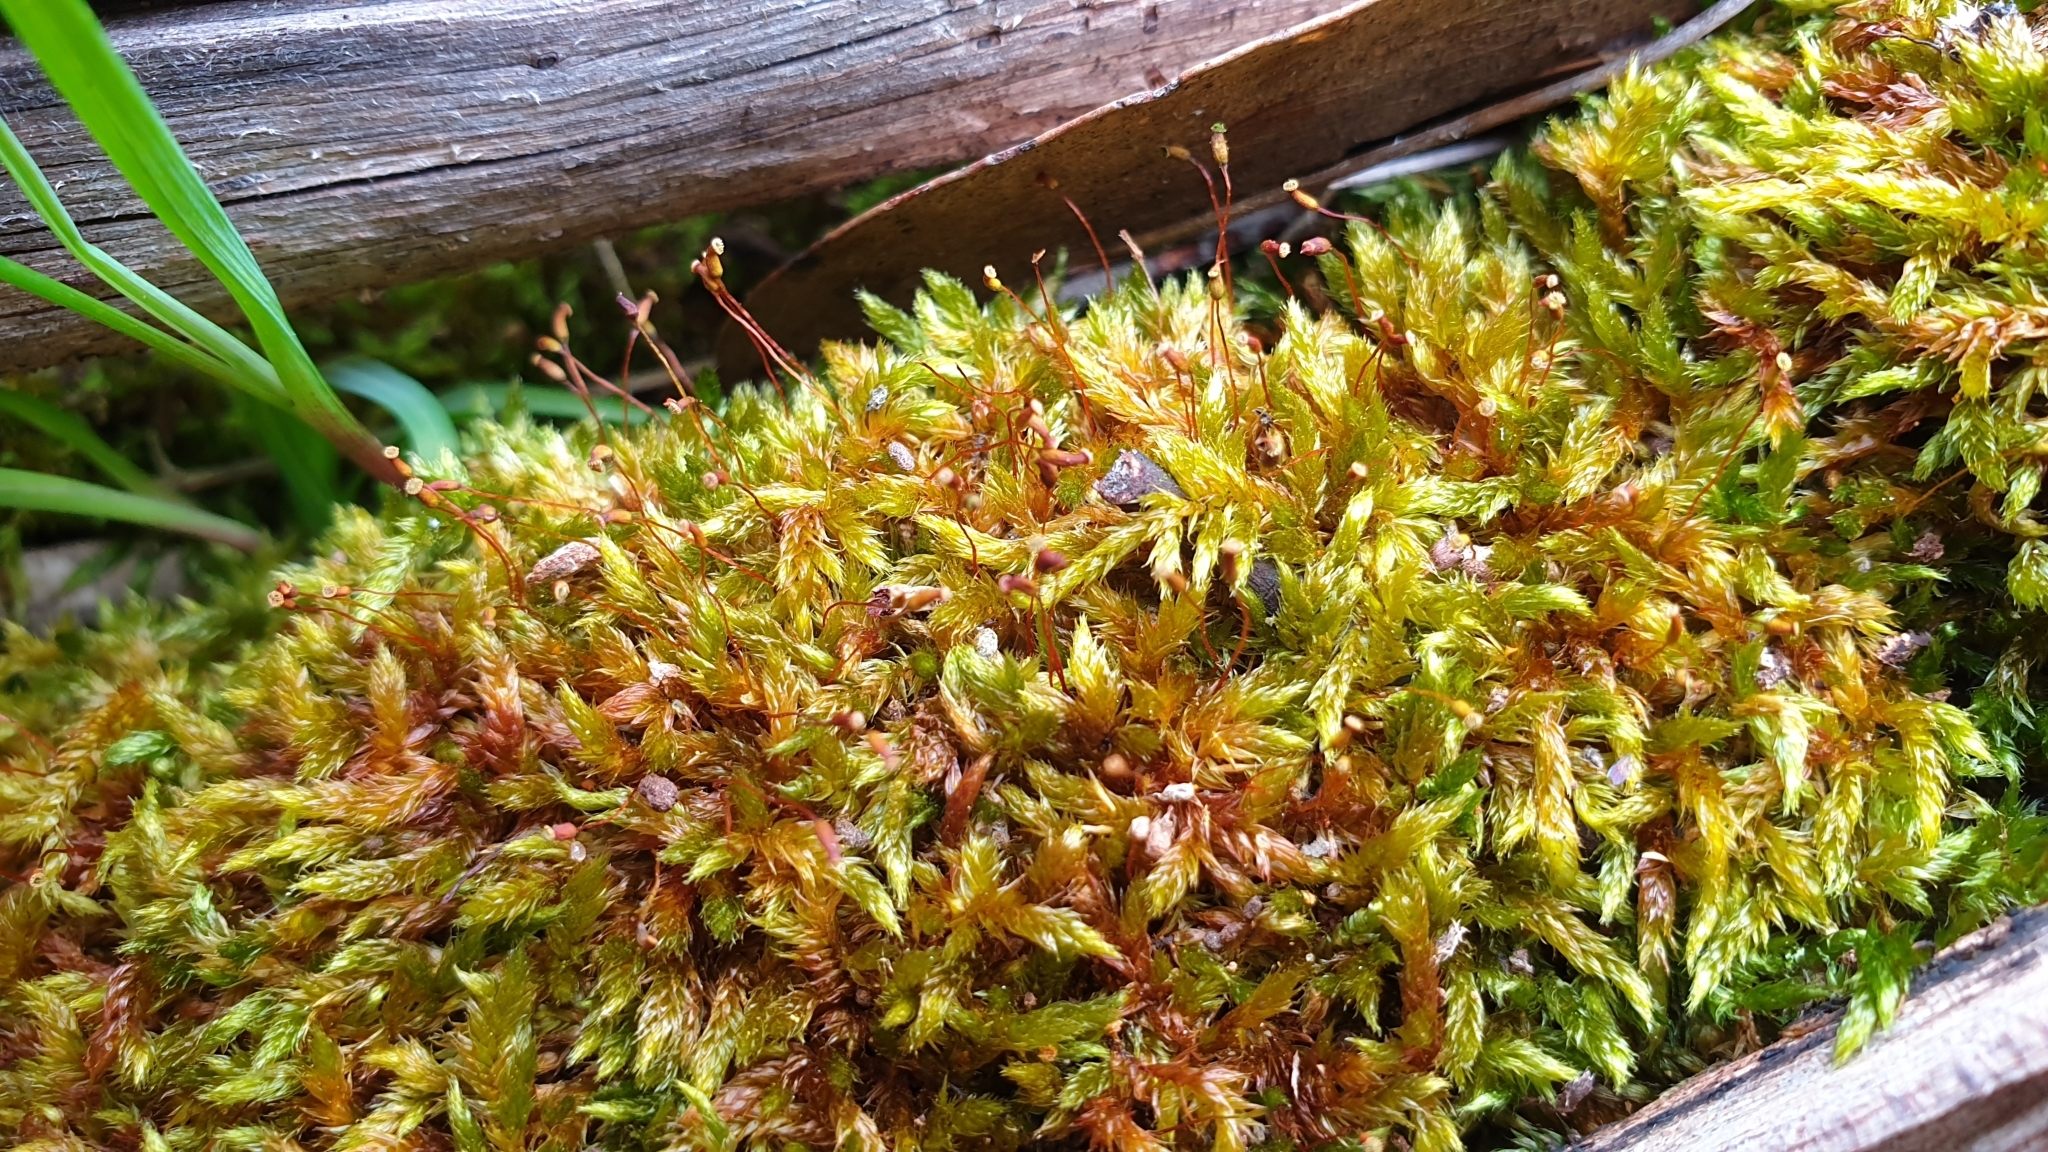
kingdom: Plantae
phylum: Bryophyta
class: Bryopsida
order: Hypnales
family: Sematophyllaceae
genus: Sematophyllum
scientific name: Sematophyllum homomallum
